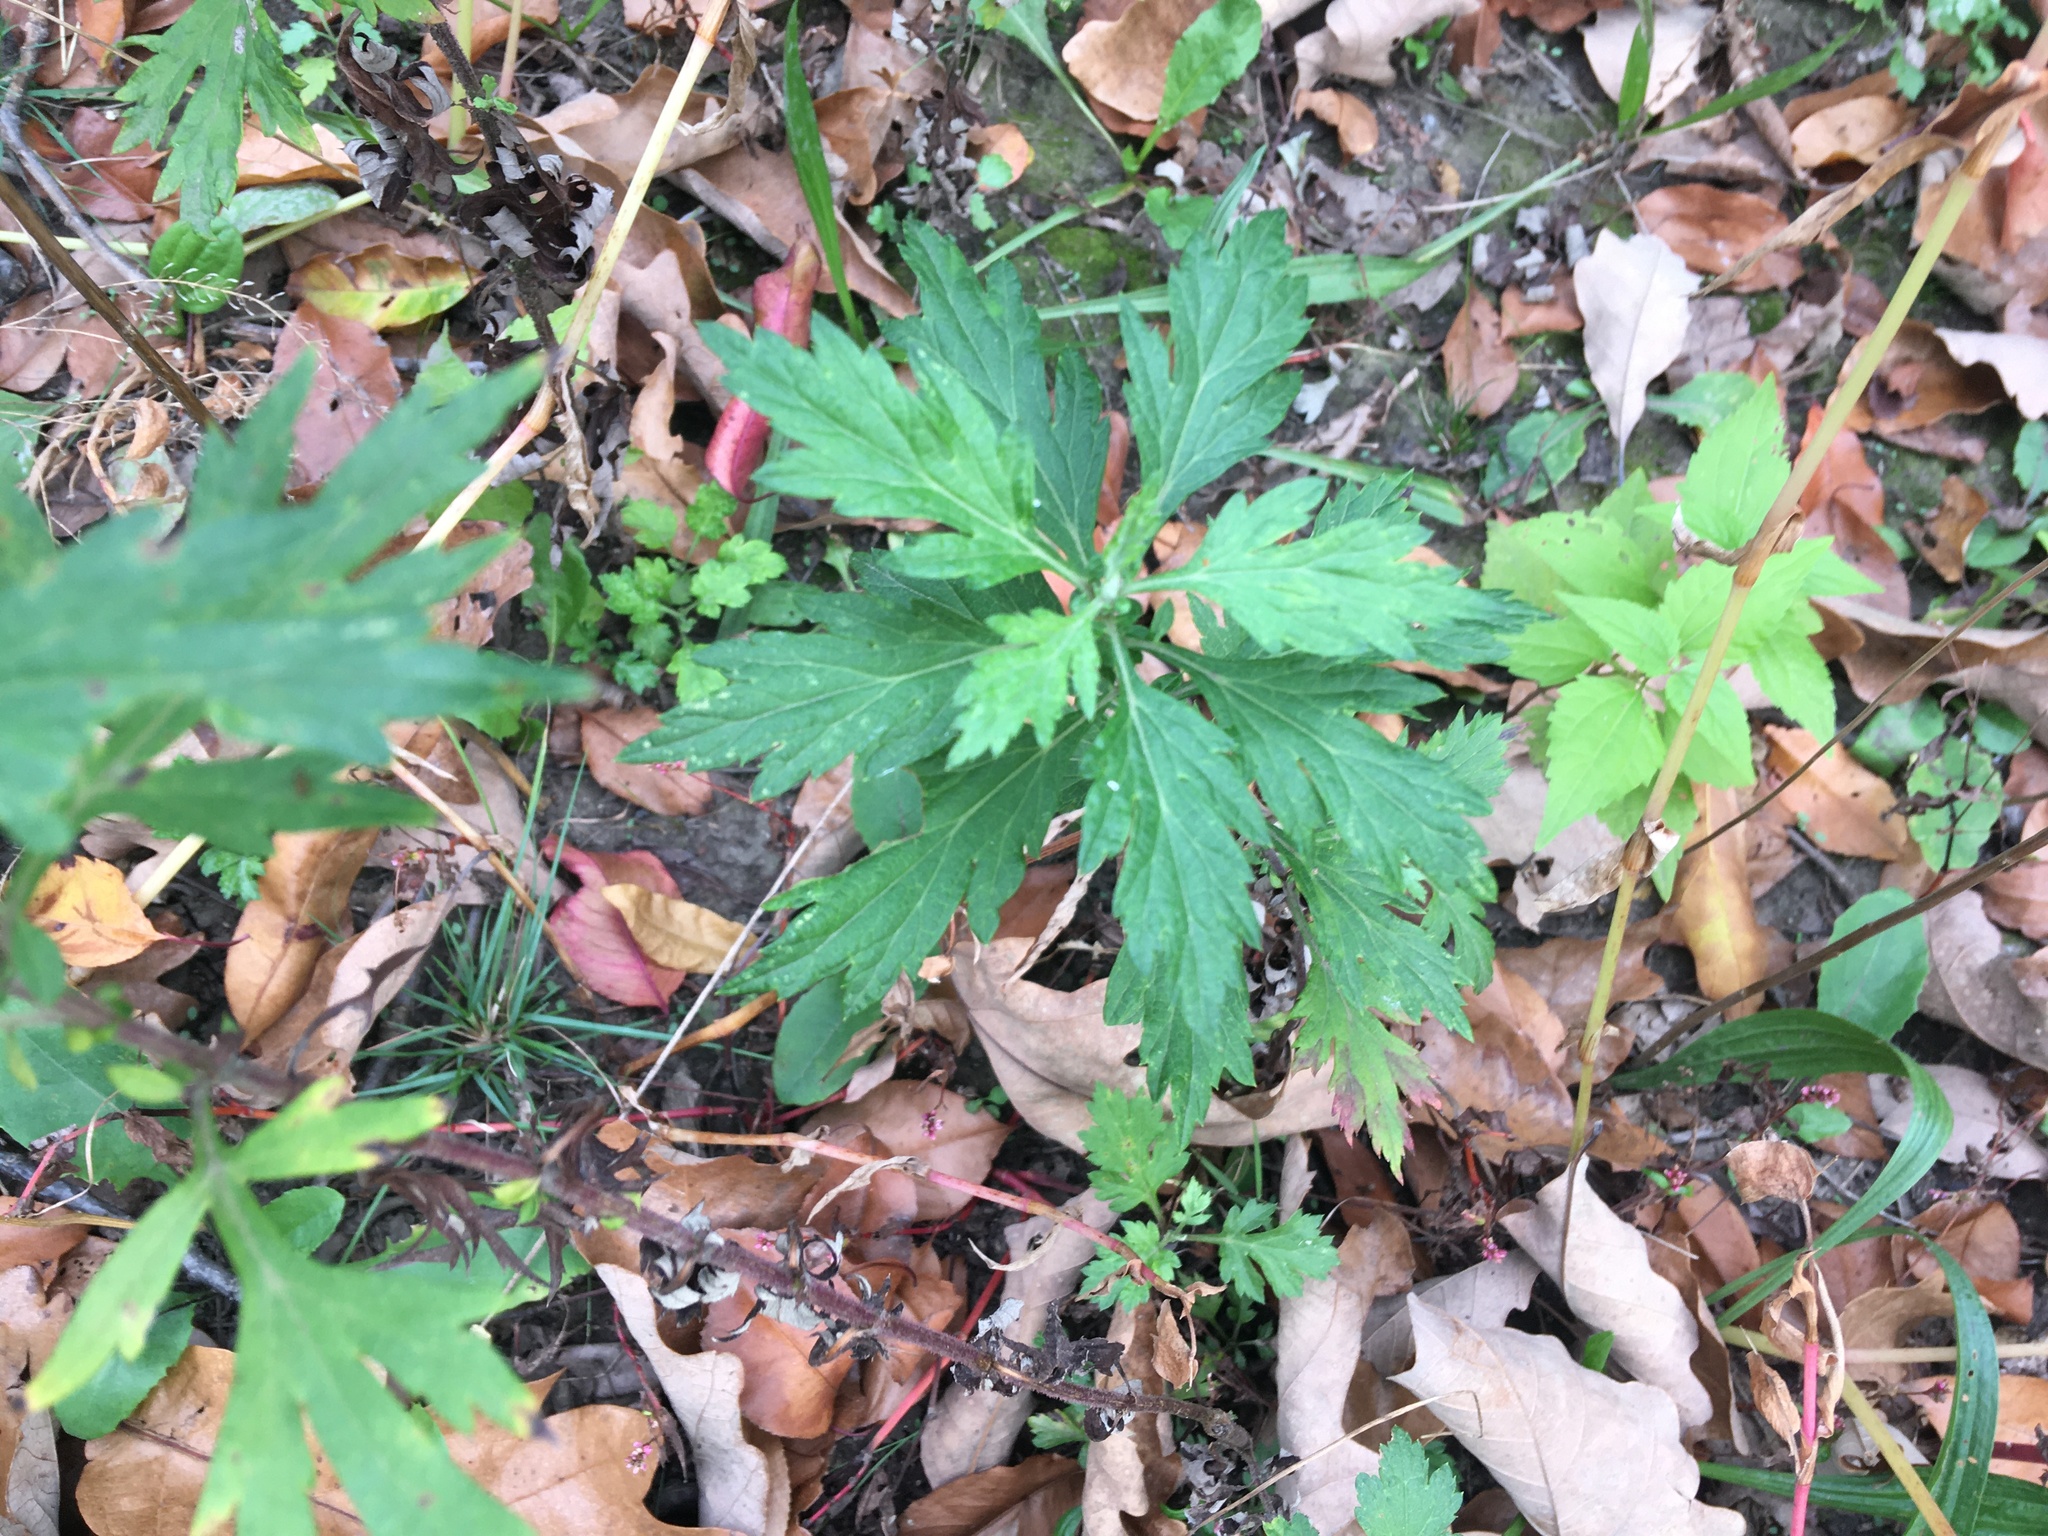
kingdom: Plantae
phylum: Tracheophyta
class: Magnoliopsida
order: Asterales
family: Asteraceae
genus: Artemisia
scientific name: Artemisia vulgaris
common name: Mugwort
